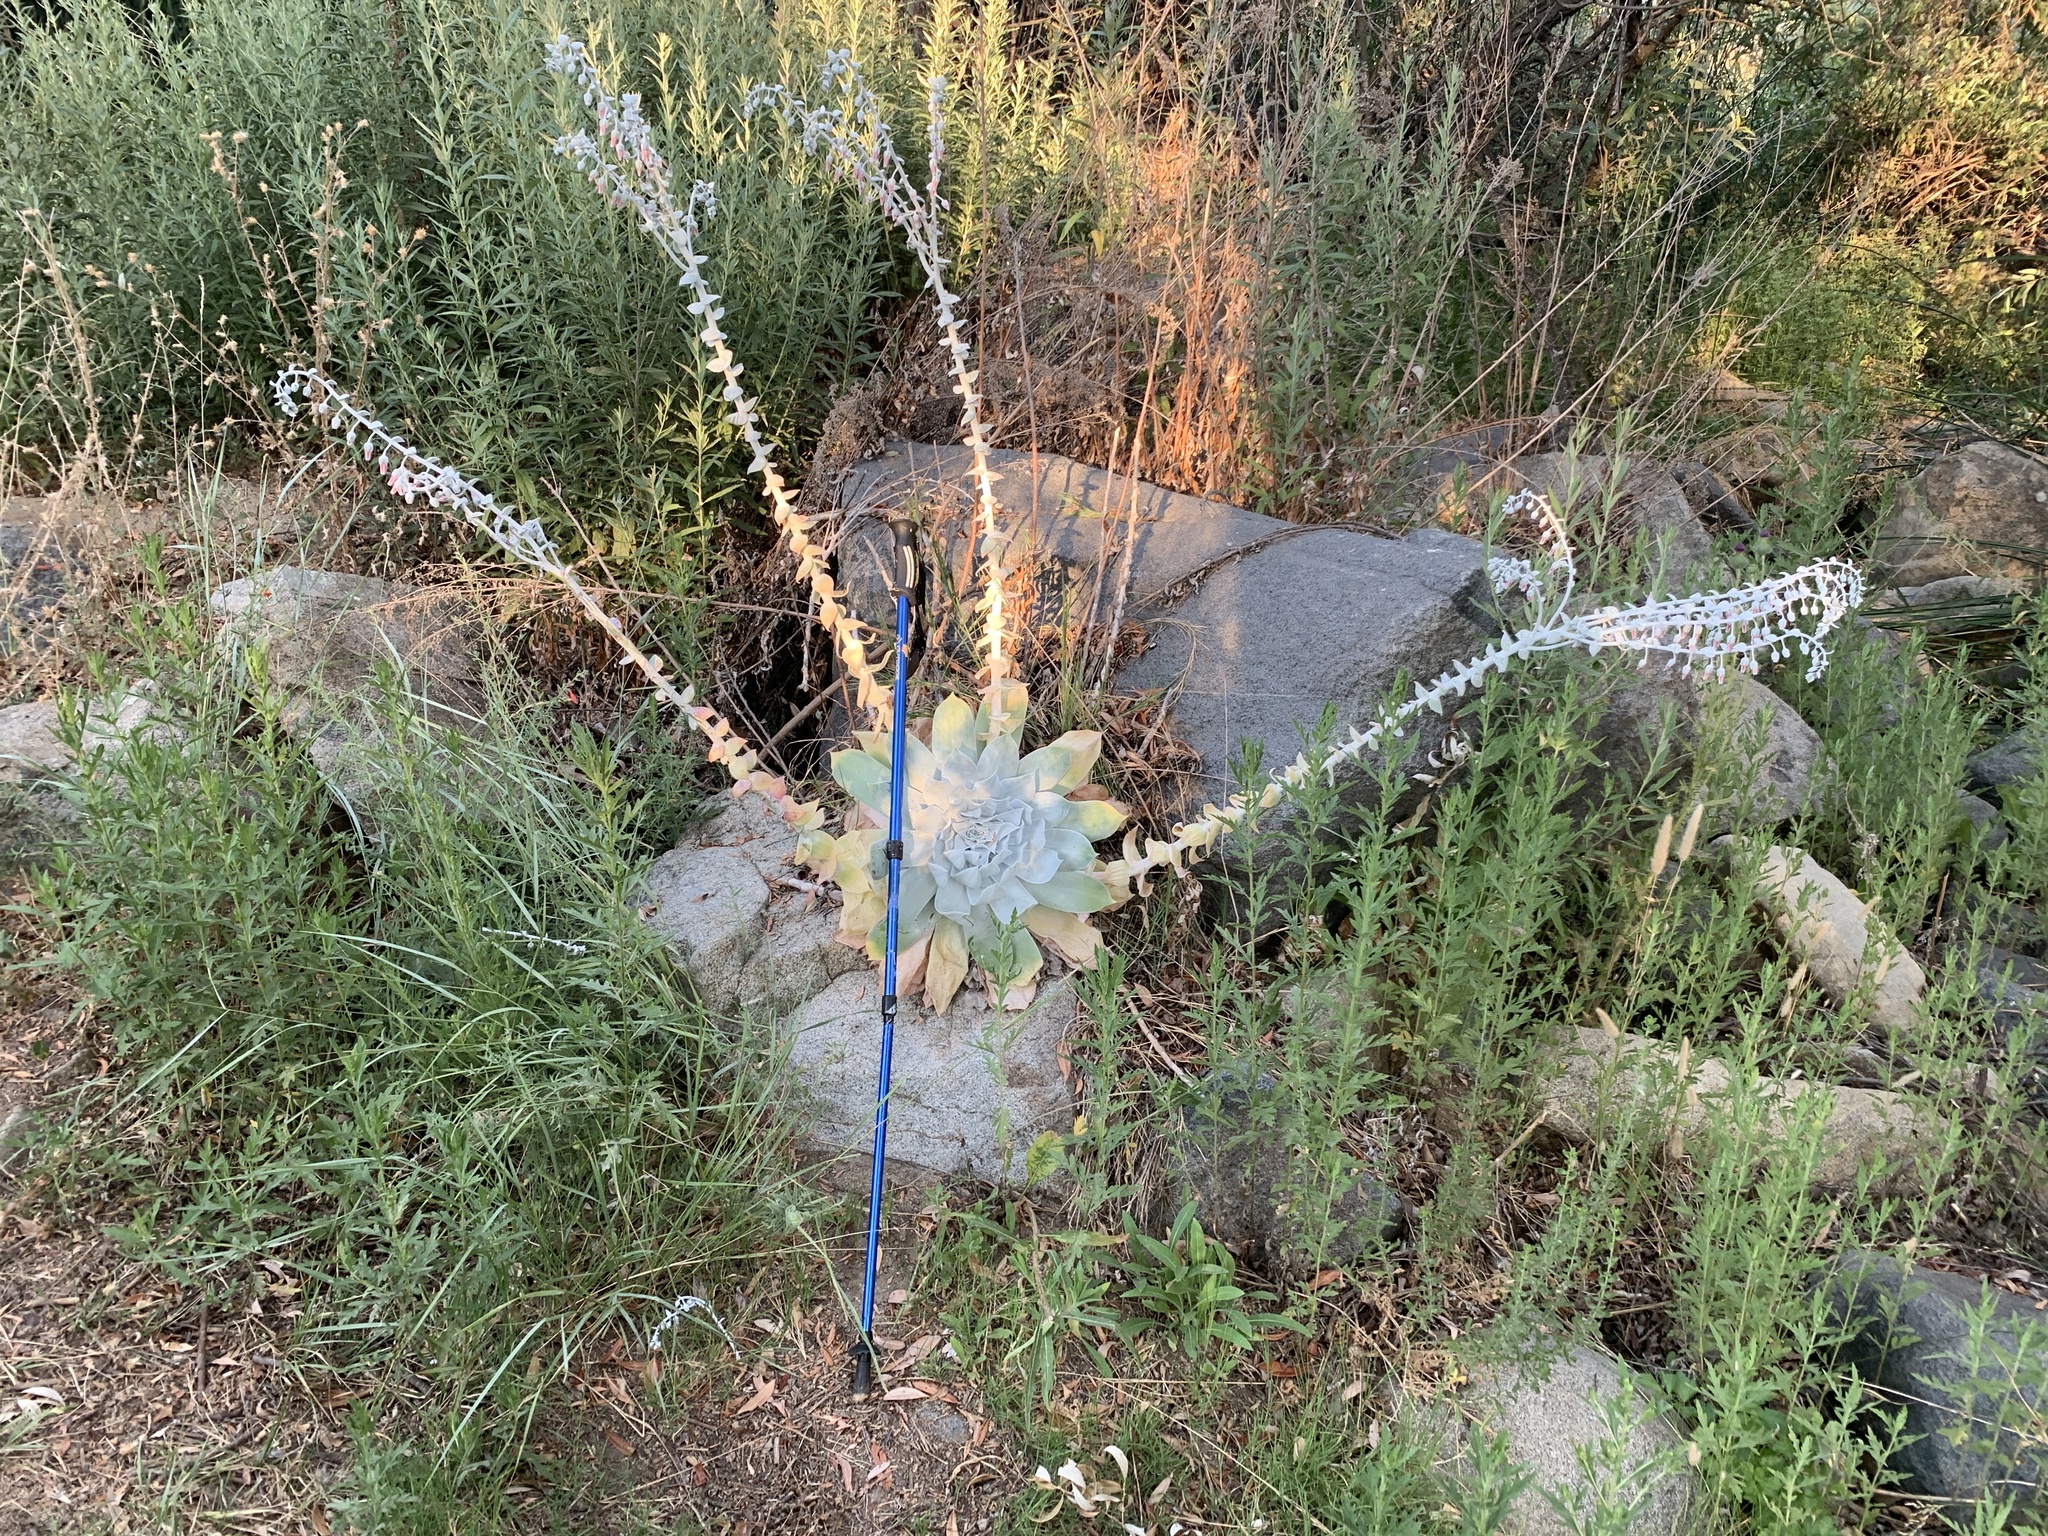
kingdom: Plantae
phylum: Tracheophyta
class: Magnoliopsida
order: Saxifragales
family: Crassulaceae
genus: Dudleya
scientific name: Dudleya pulverulenta
